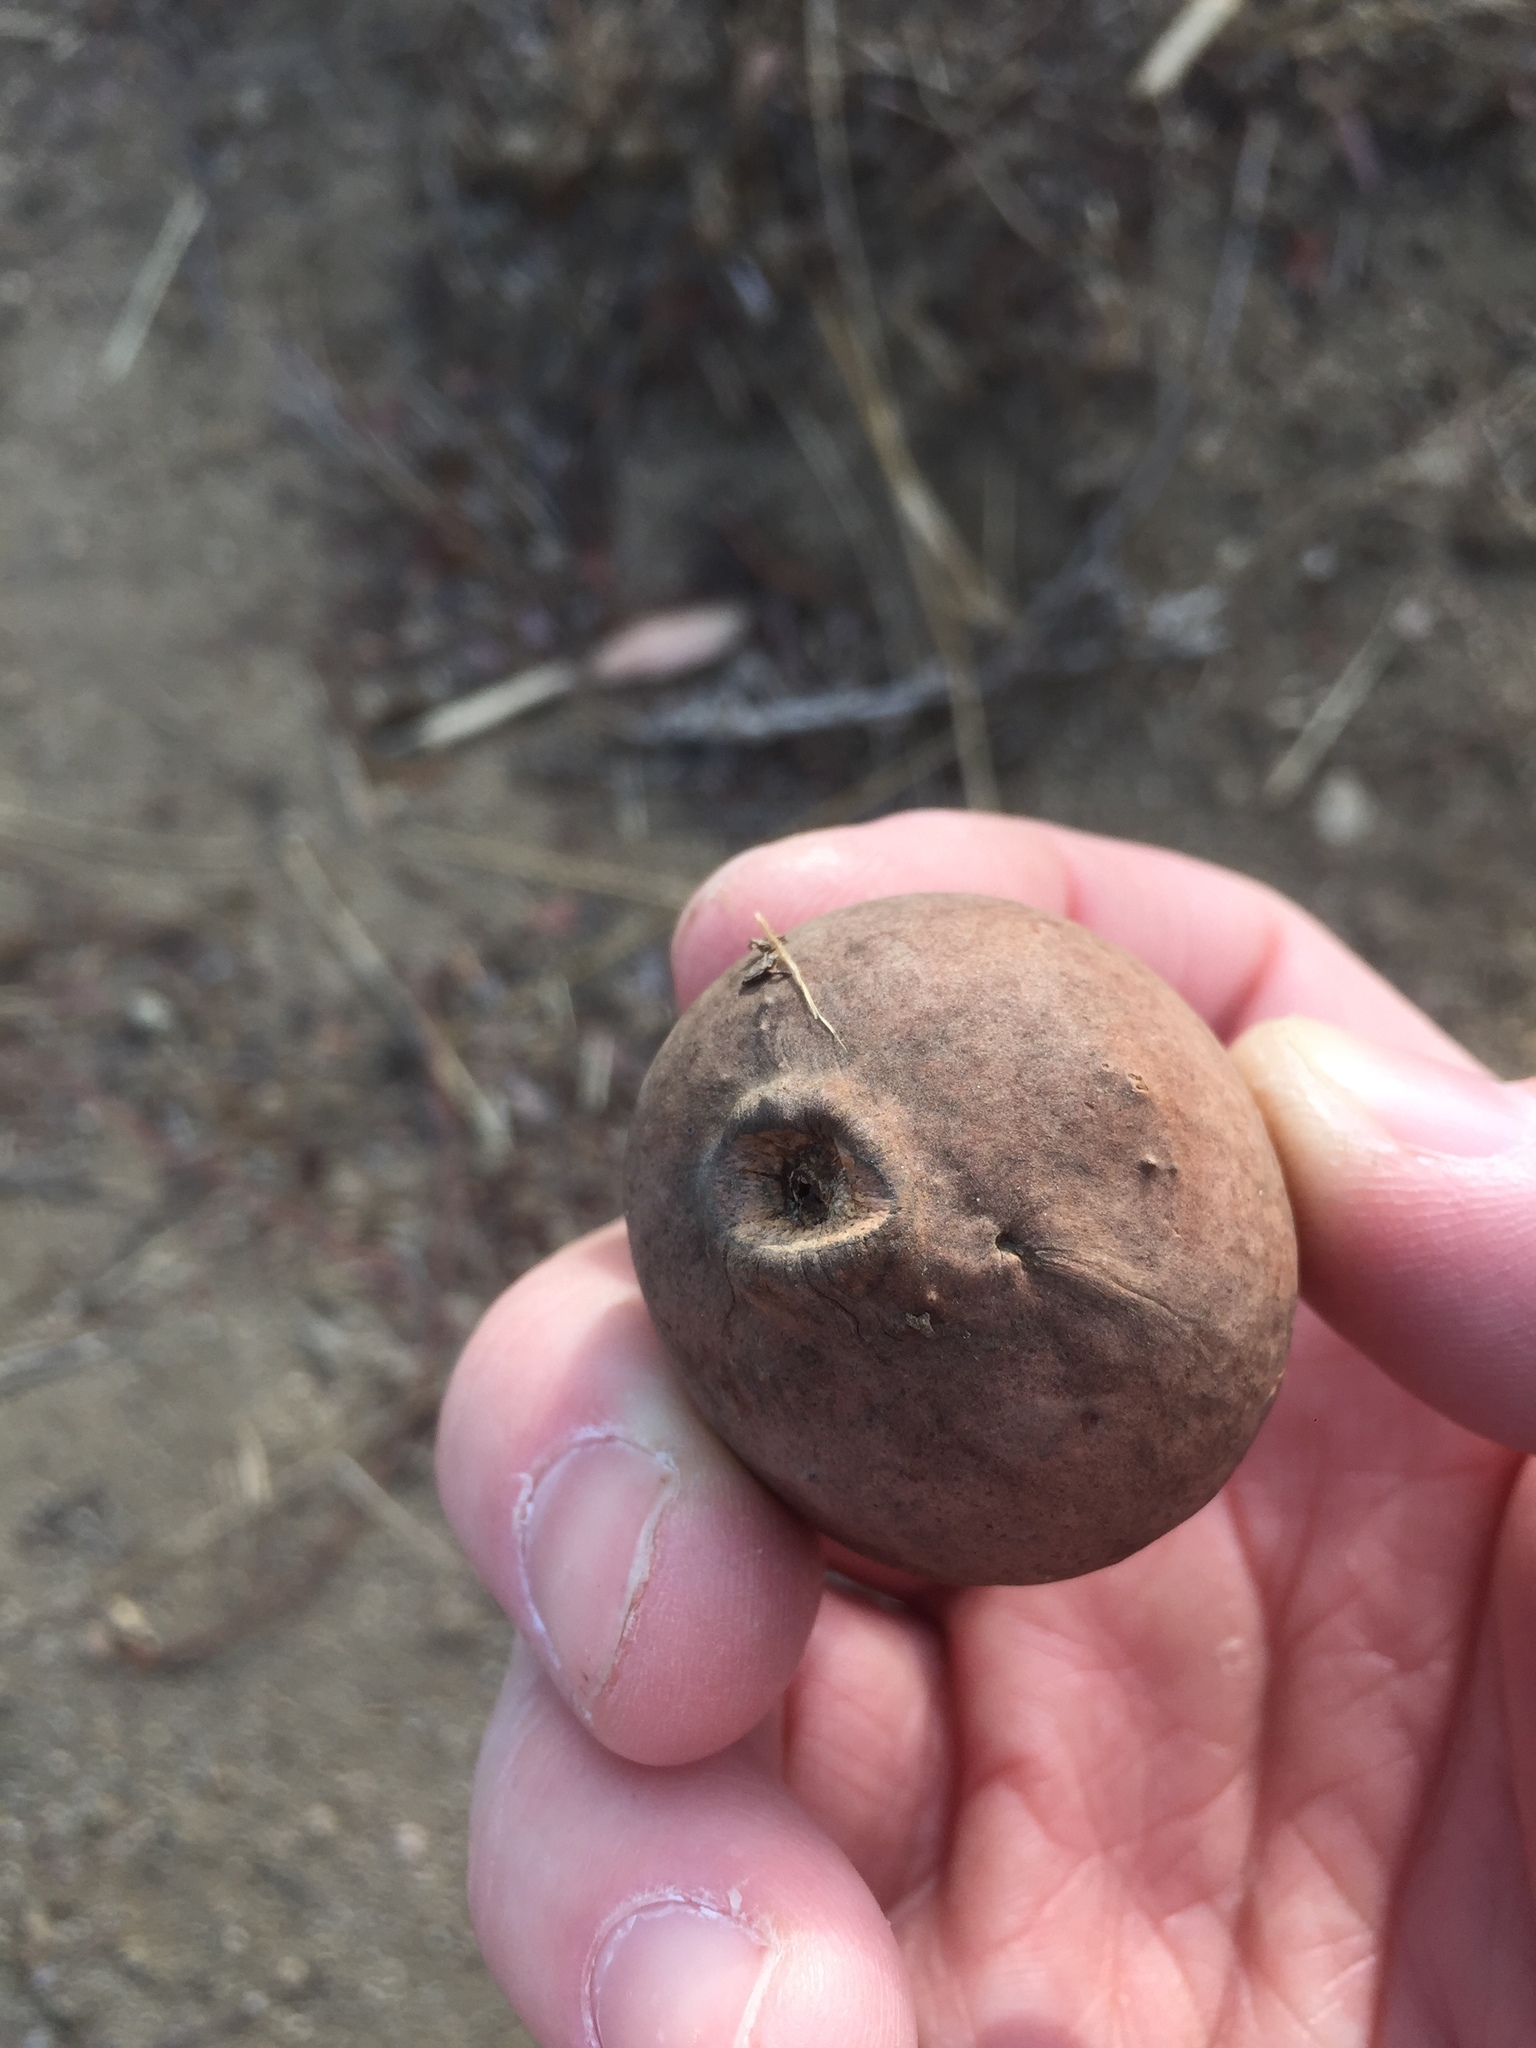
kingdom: Animalia
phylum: Arthropoda
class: Insecta
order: Hymenoptera
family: Cynipidae
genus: Andricus
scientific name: Andricus quercuscalifornicus
